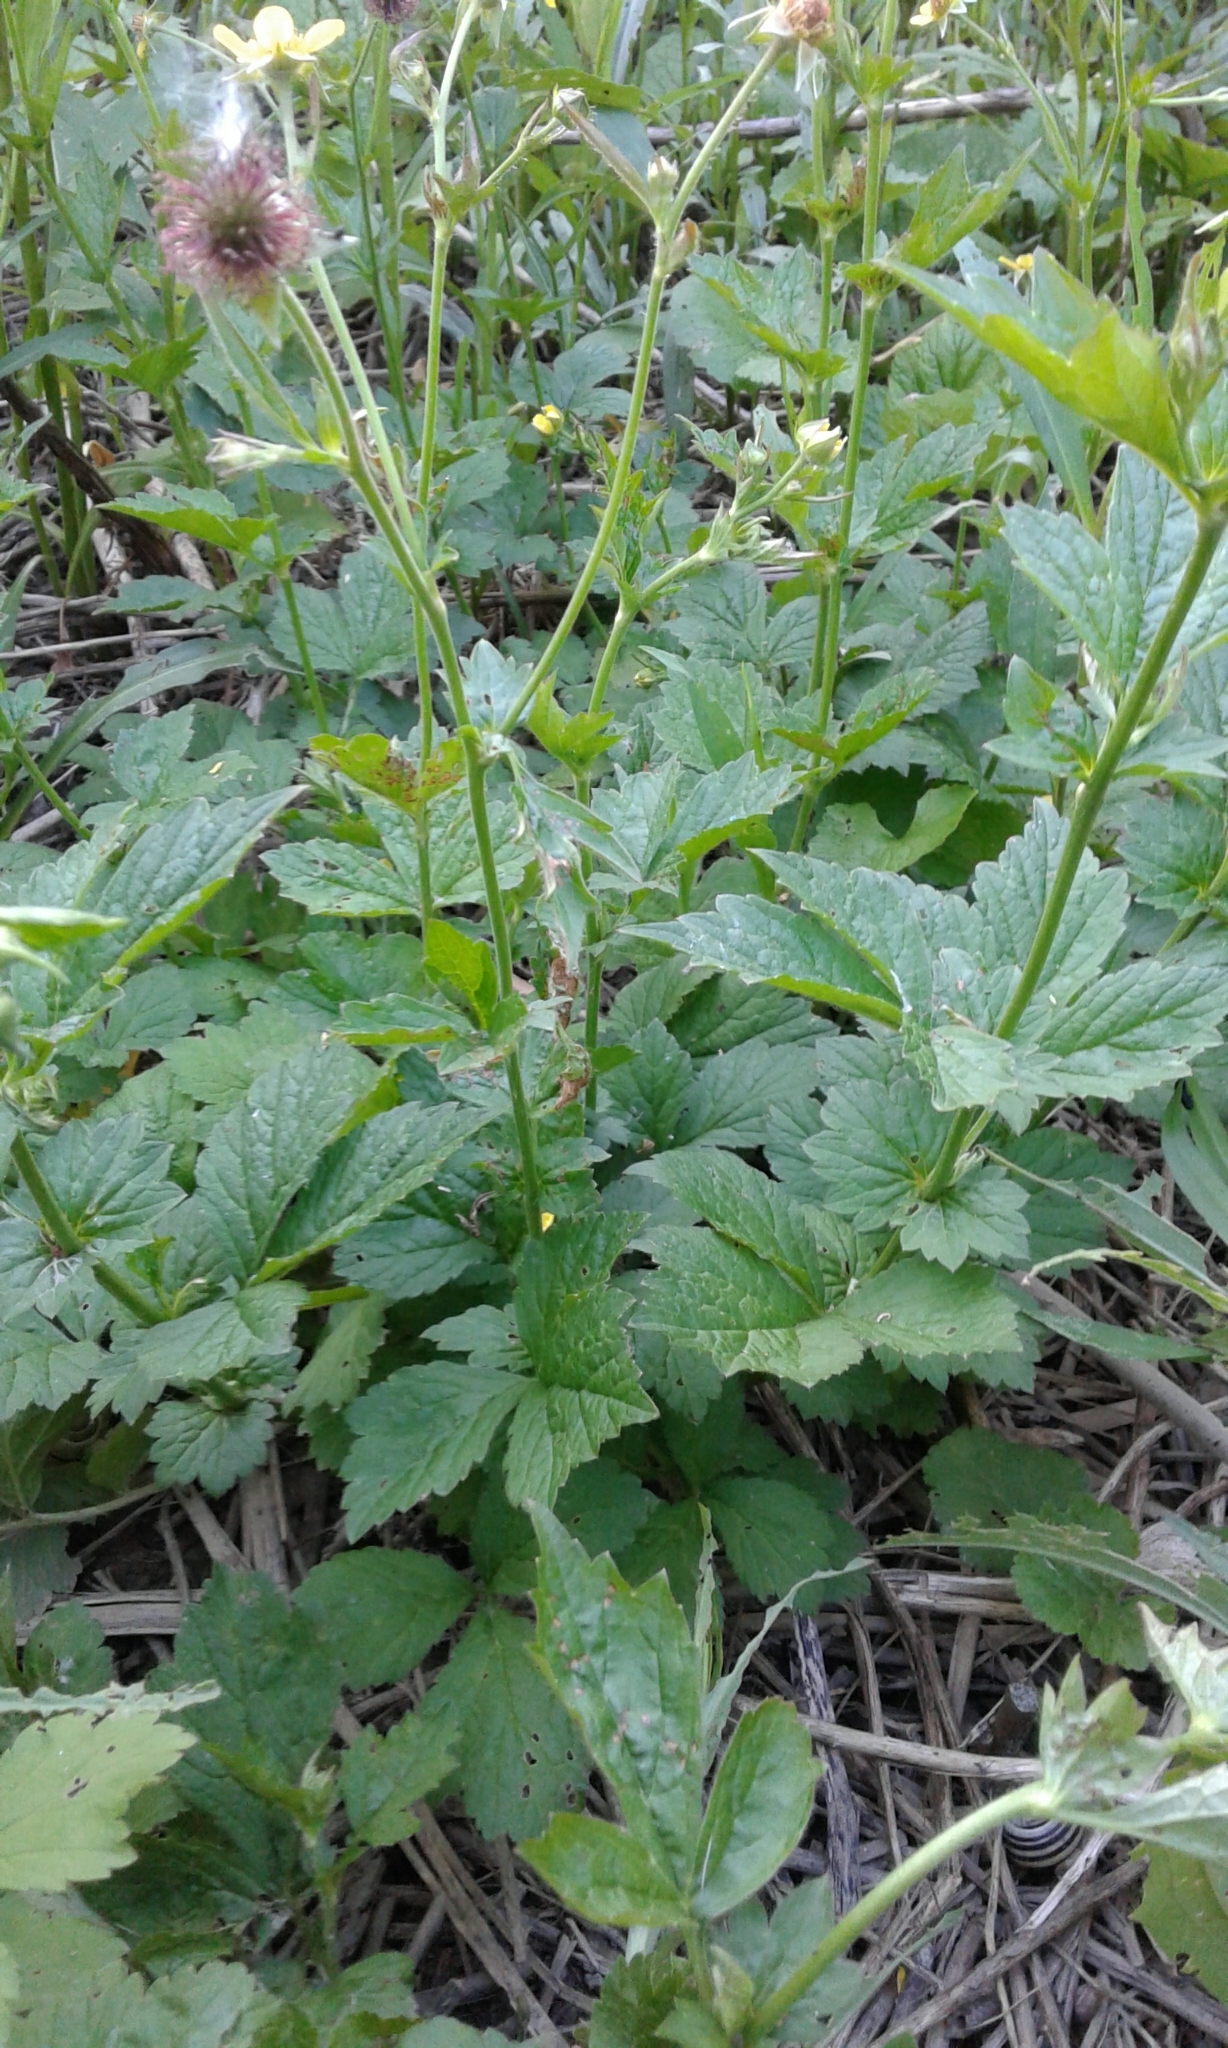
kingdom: Plantae
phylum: Tracheophyta
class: Magnoliopsida
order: Rosales
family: Rosaceae
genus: Geum
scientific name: Geum urbanum
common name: Wood avens
